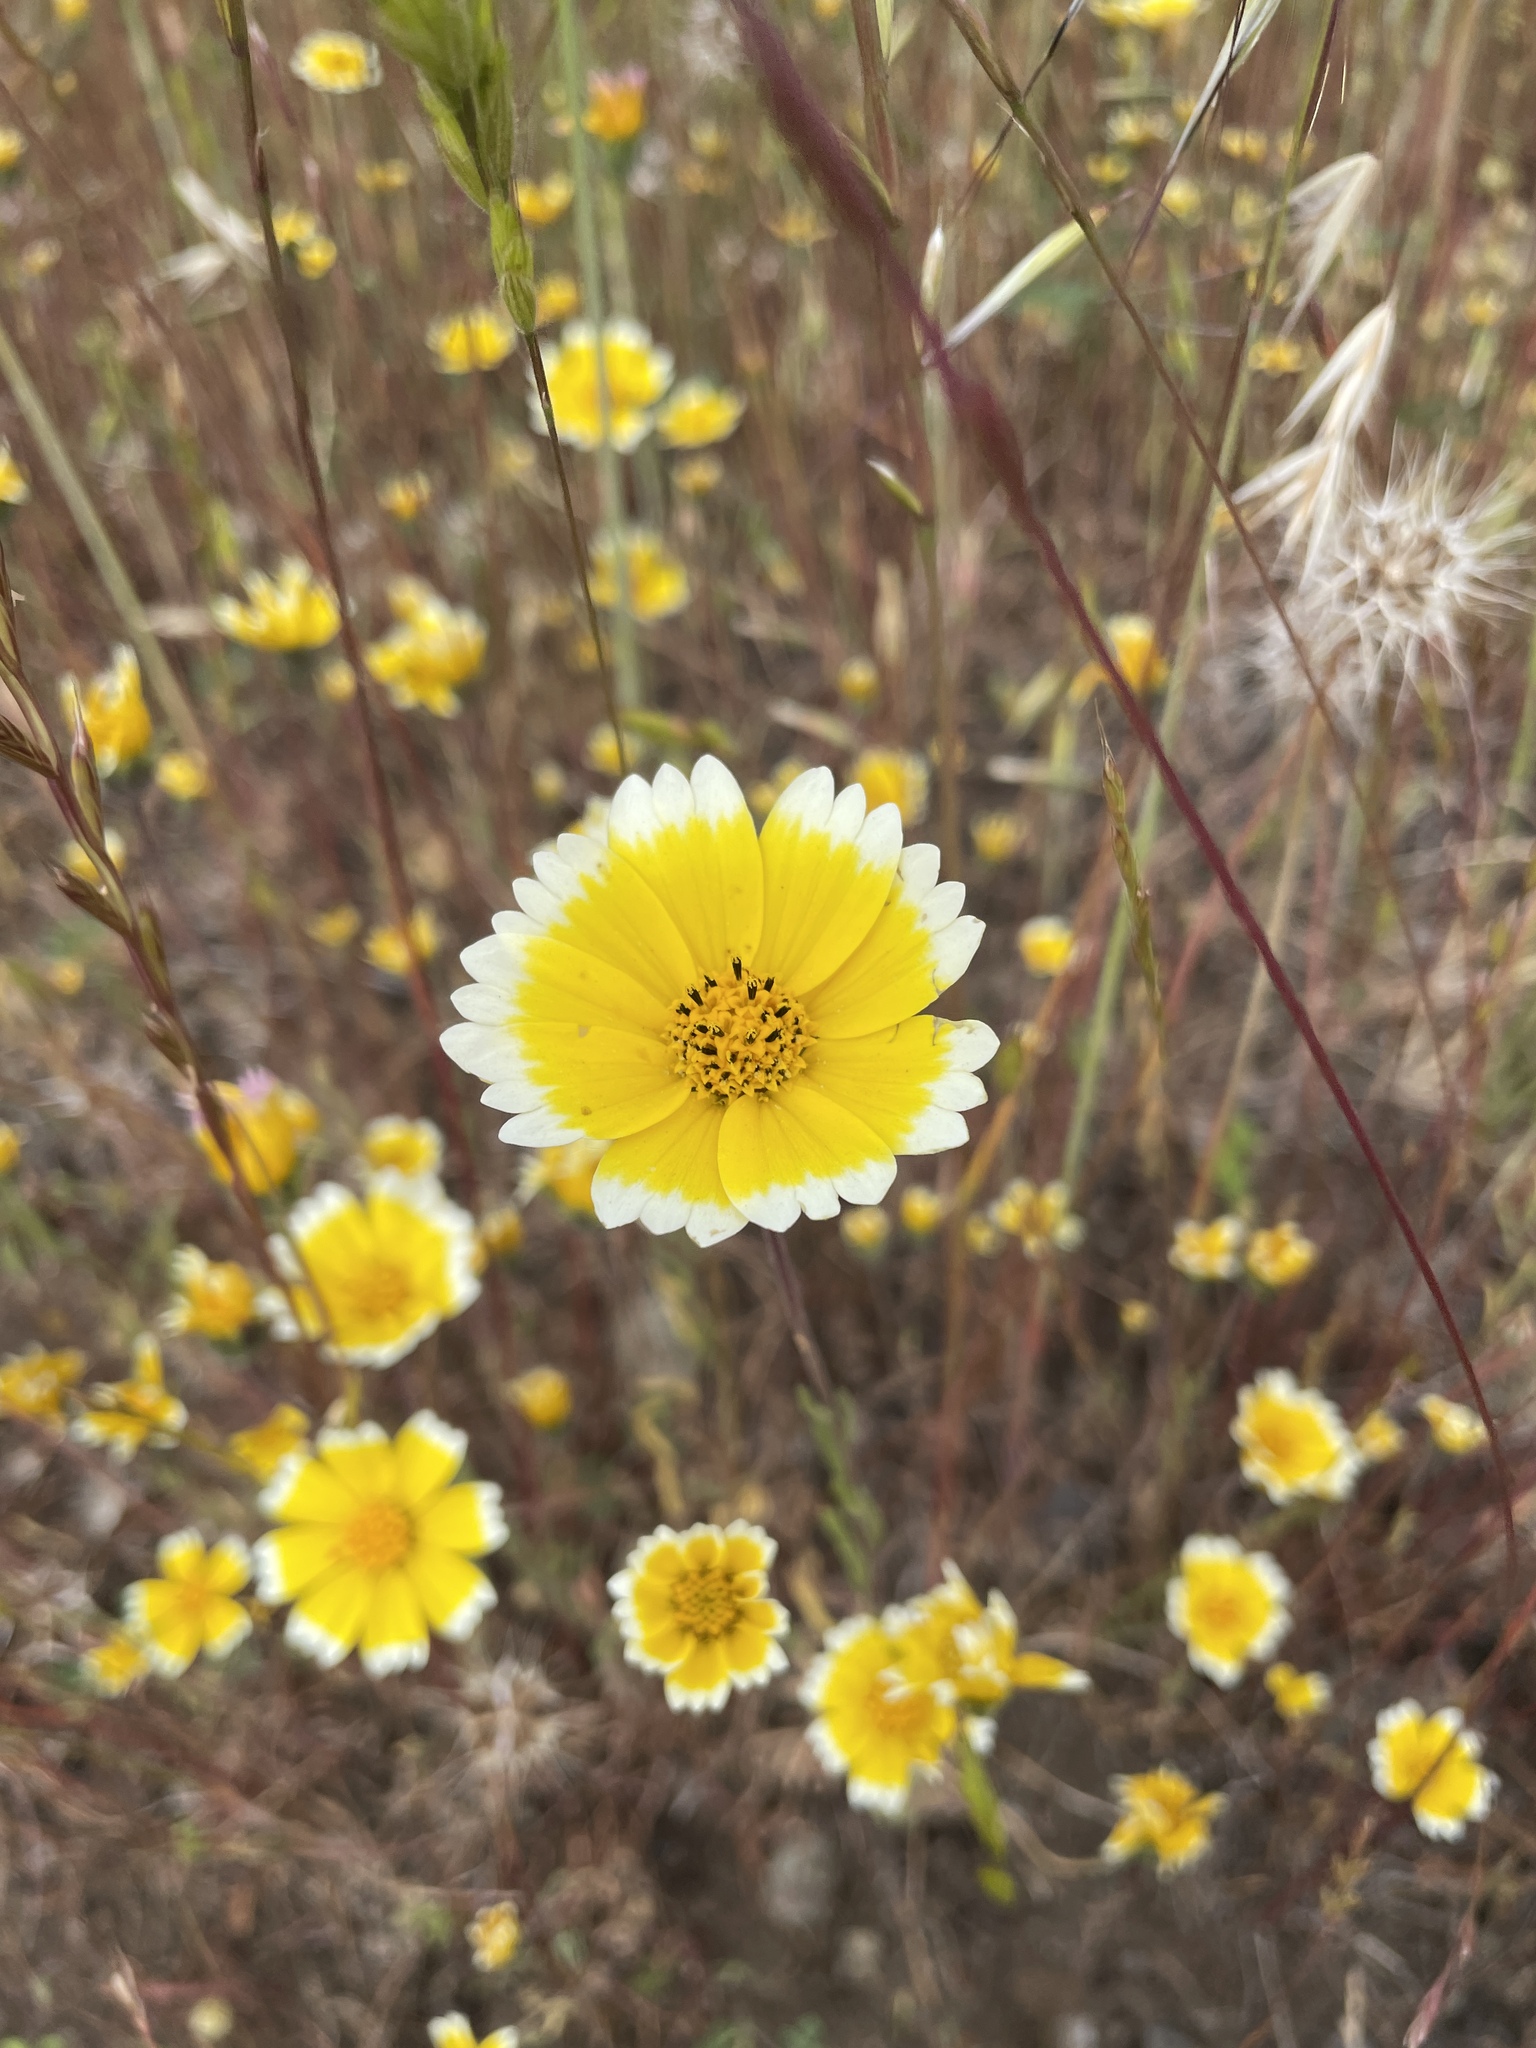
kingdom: Plantae
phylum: Tracheophyta
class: Magnoliopsida
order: Asterales
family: Asteraceae
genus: Layia
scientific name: Layia platyglossa
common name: Tidy-tips
